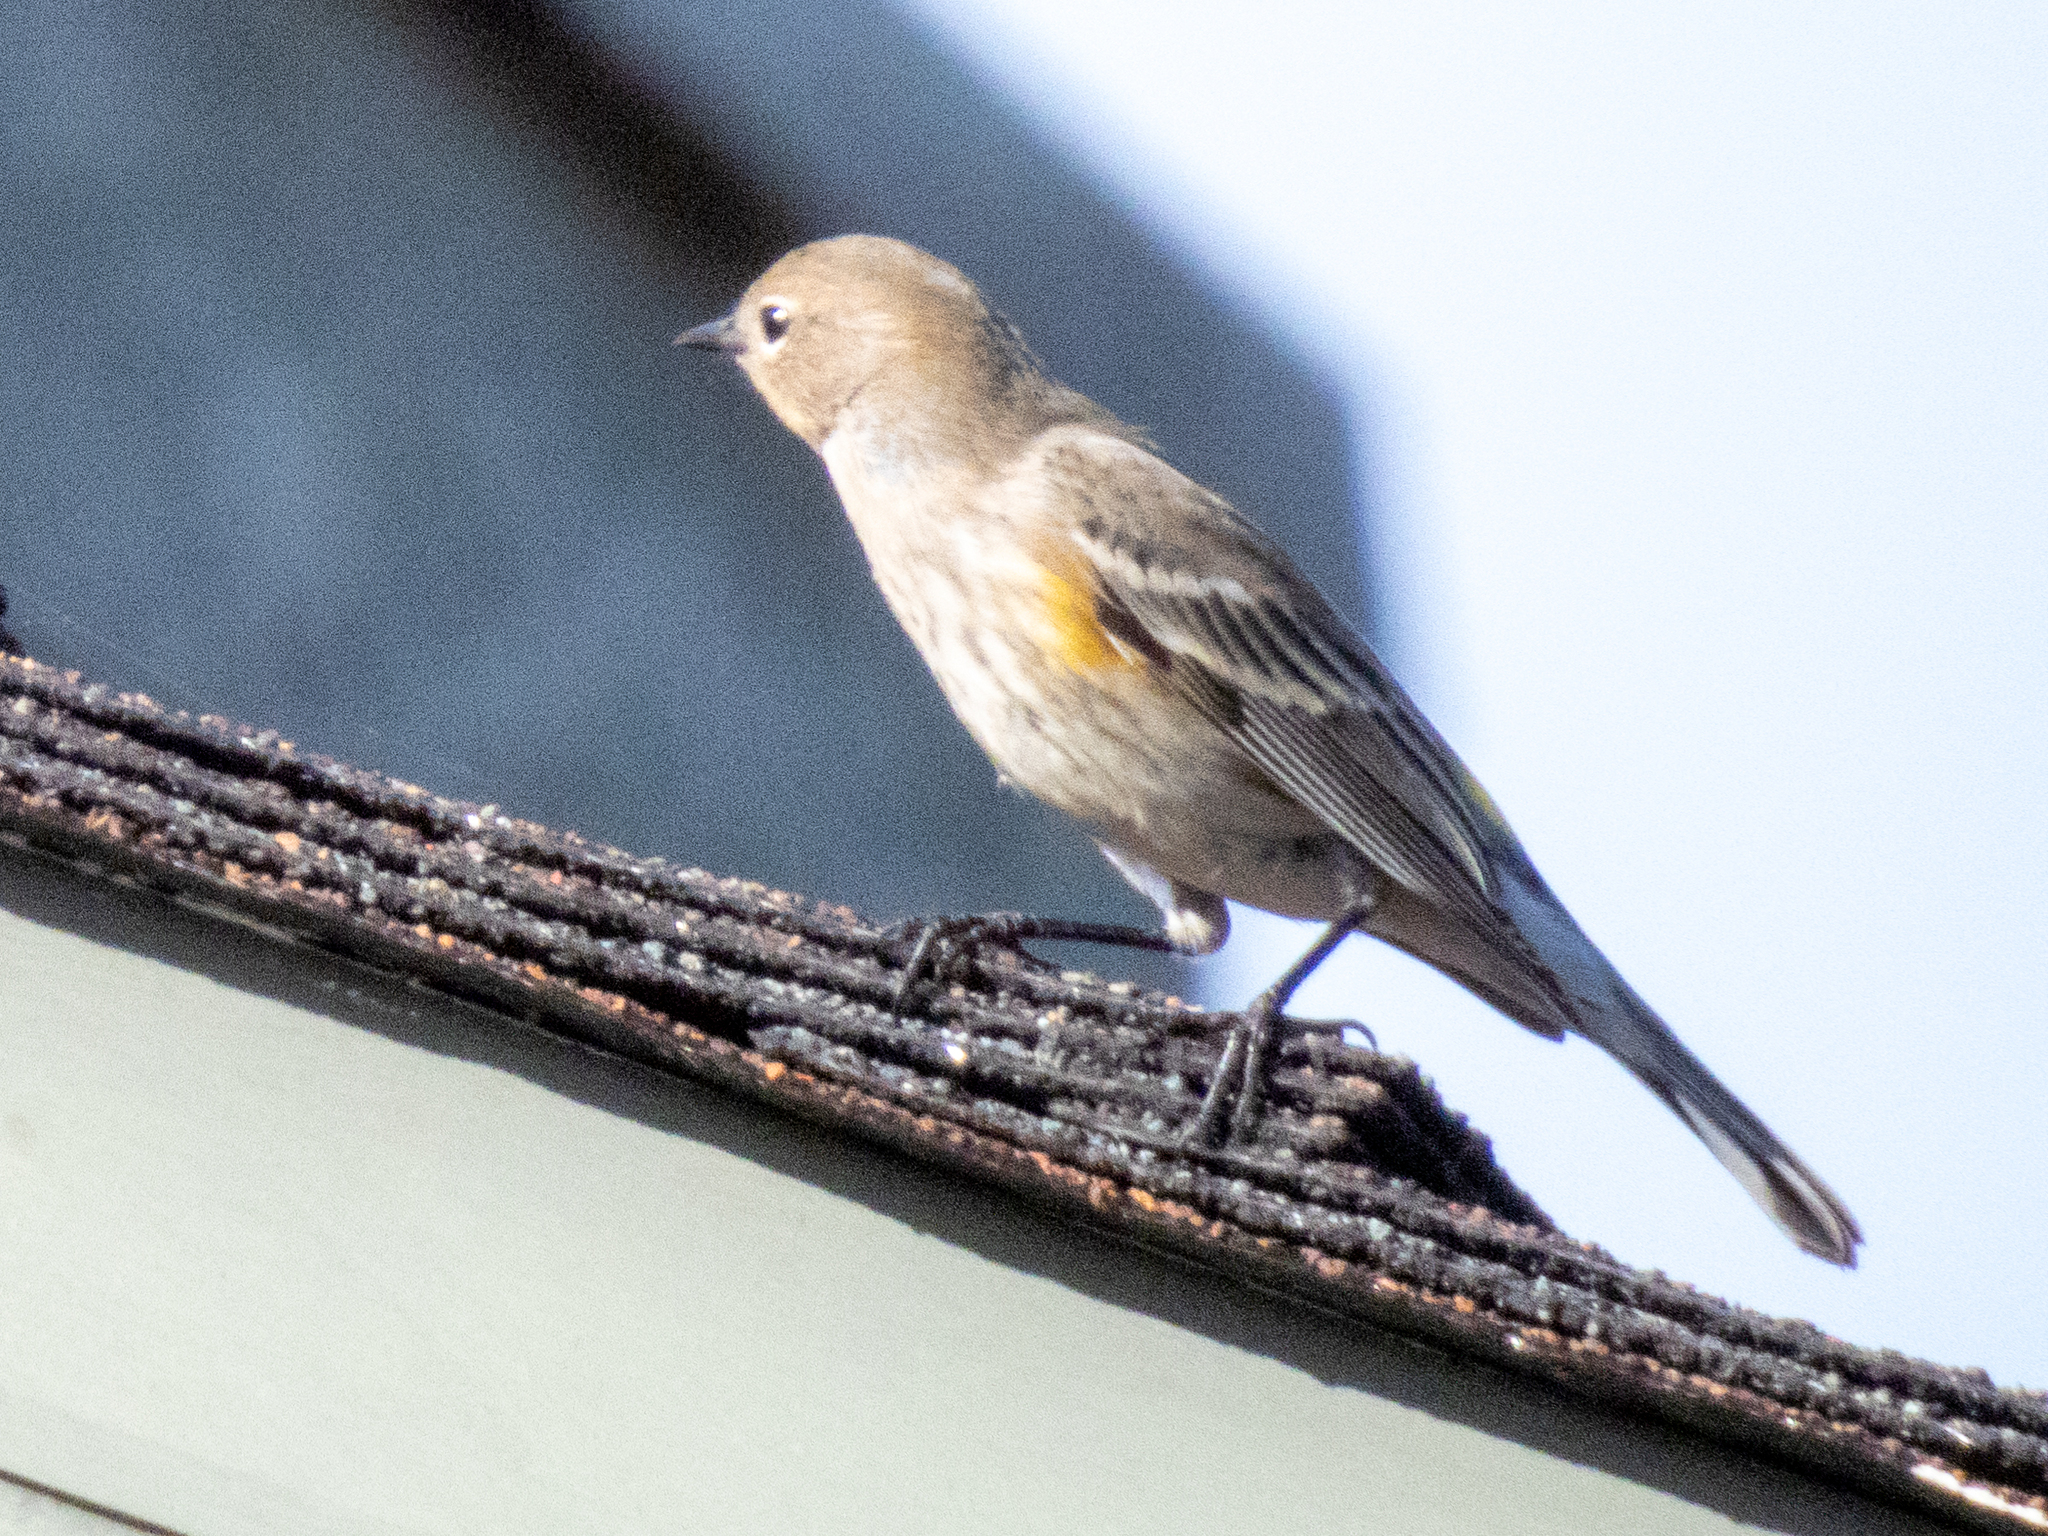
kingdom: Animalia
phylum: Chordata
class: Aves
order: Passeriformes
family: Parulidae
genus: Setophaga
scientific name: Setophaga coronata
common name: Myrtle warbler
